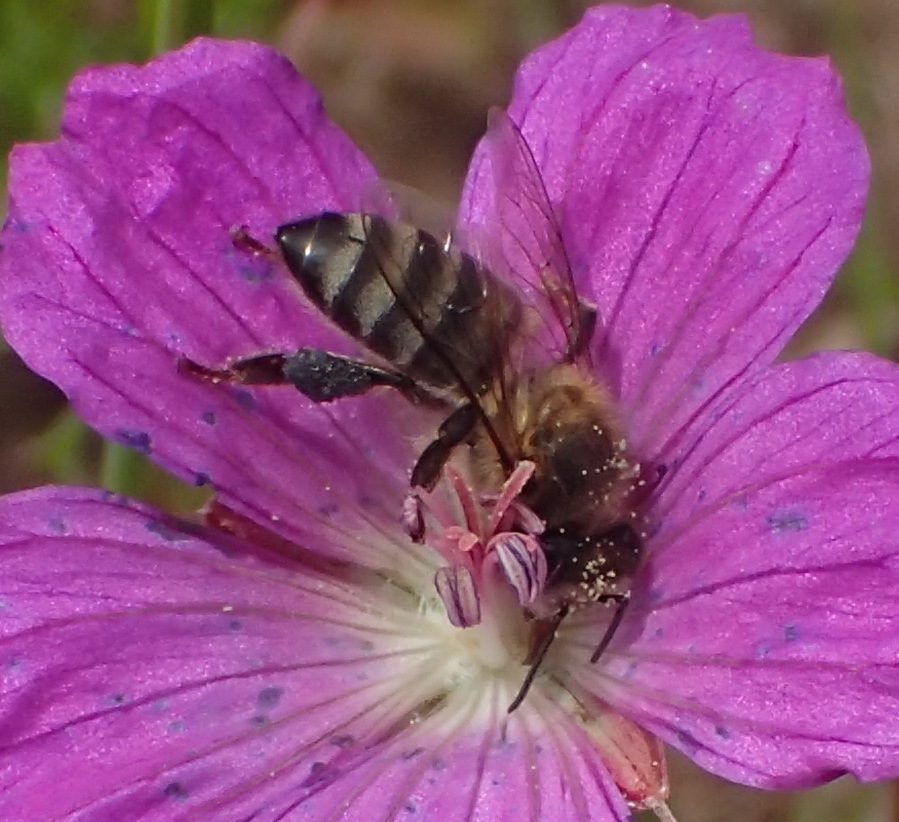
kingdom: Animalia
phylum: Arthropoda
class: Insecta
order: Hymenoptera
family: Apidae
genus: Apis
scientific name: Apis mellifera
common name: Honey bee
